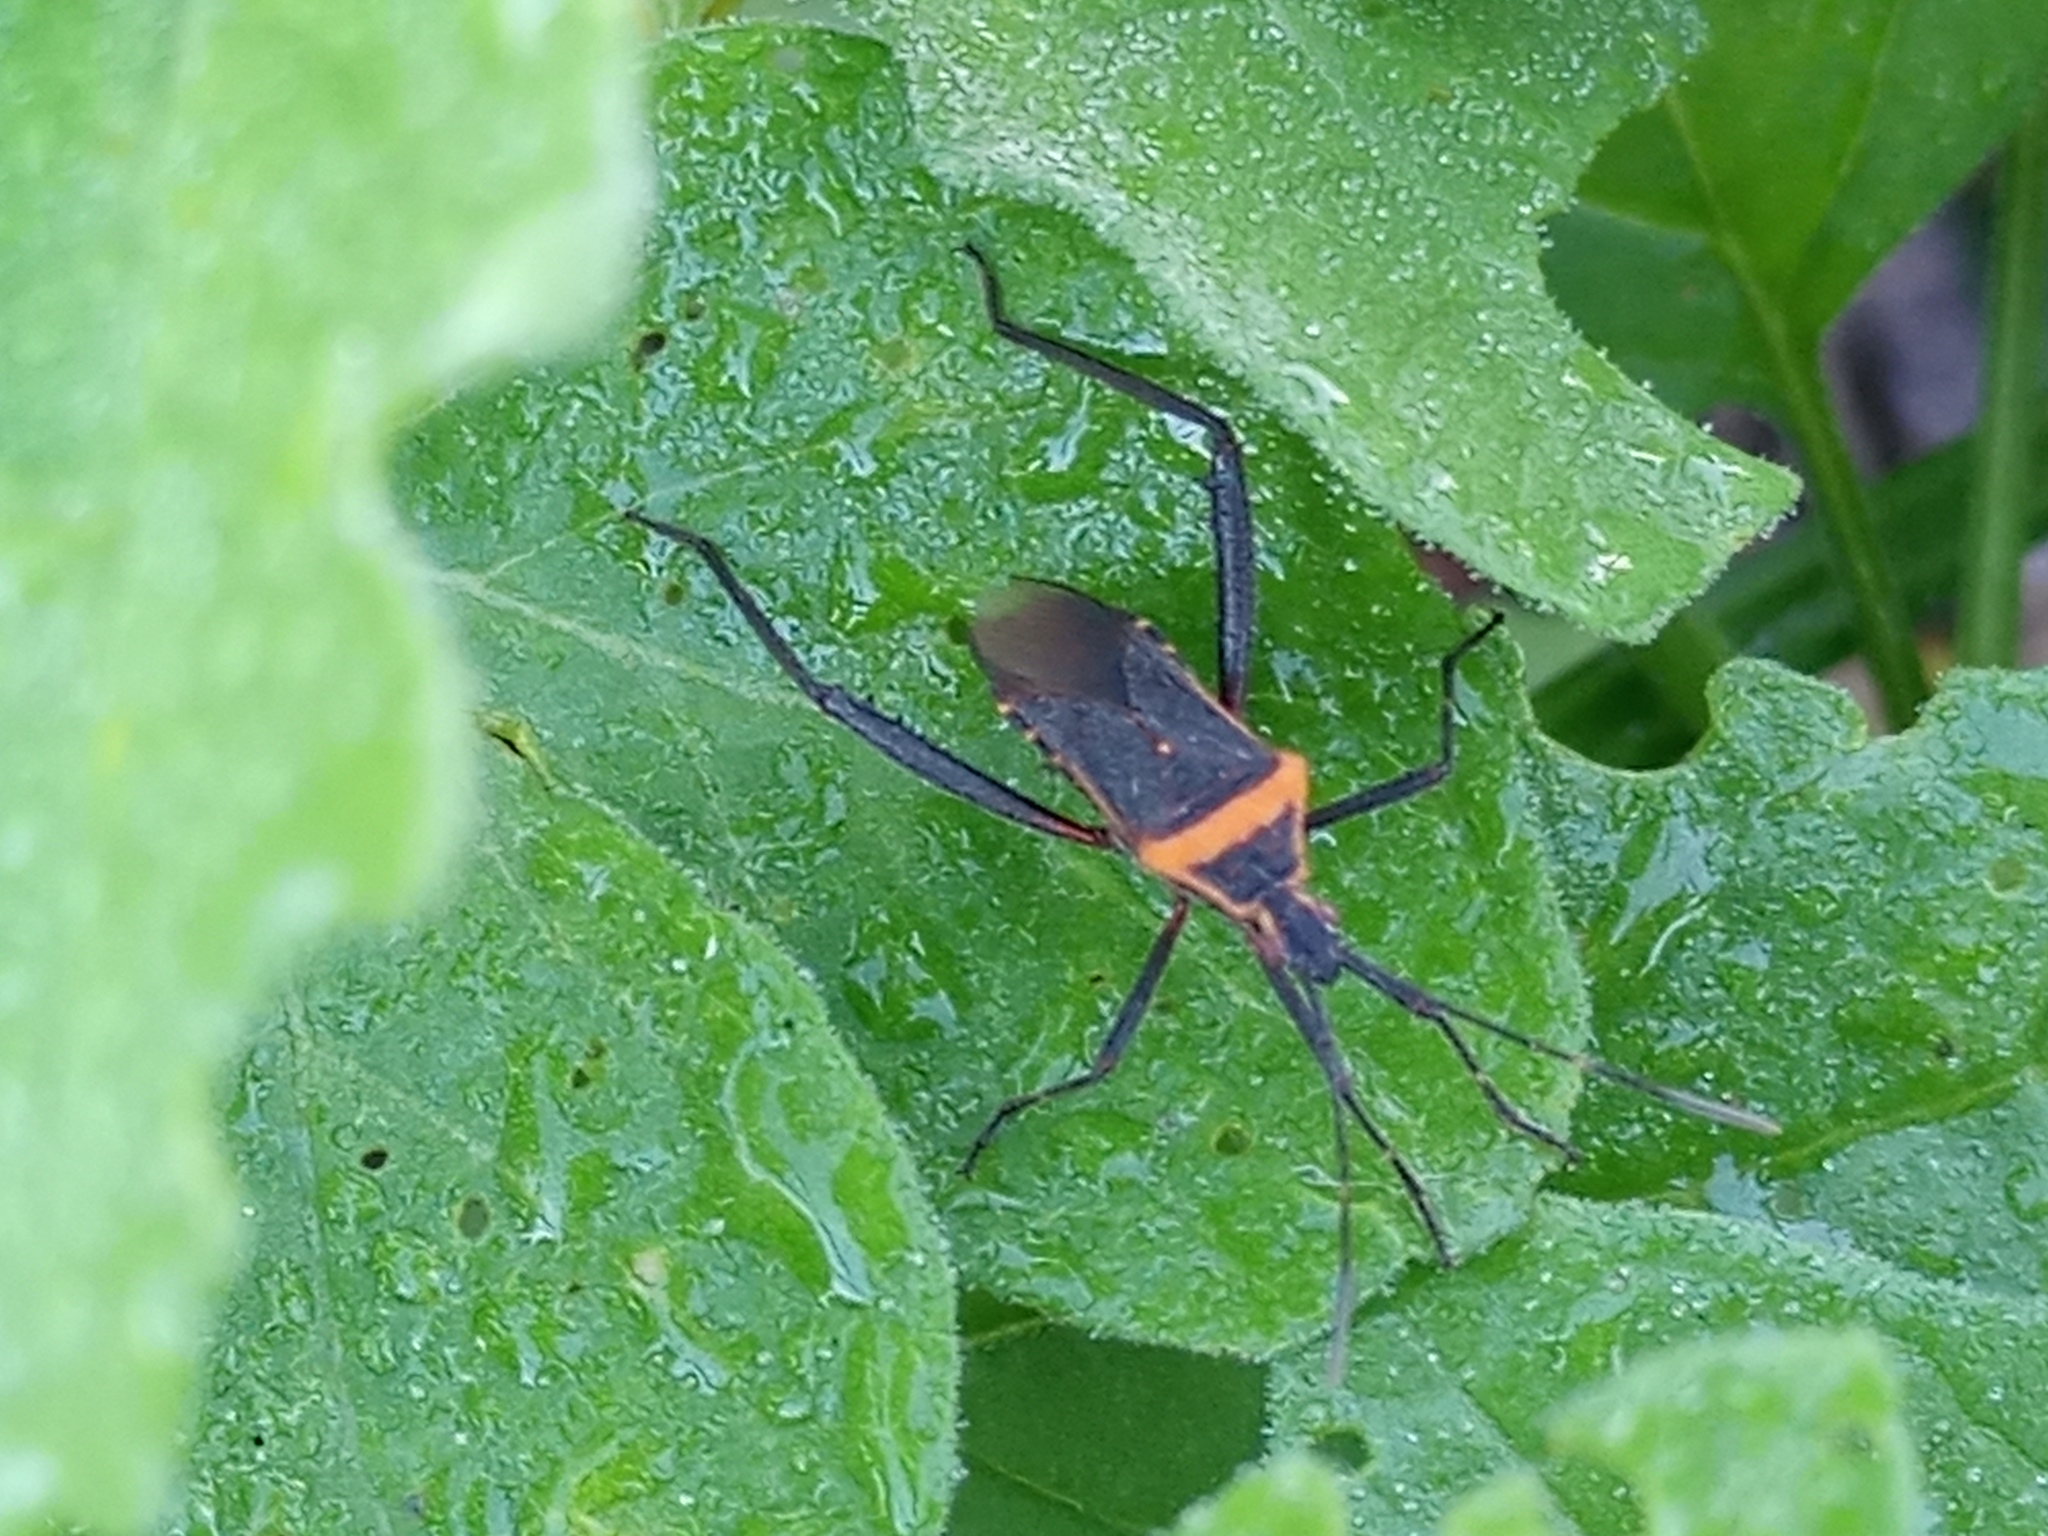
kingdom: Animalia
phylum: Arthropoda
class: Insecta
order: Hemiptera
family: Coreidae
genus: Phthiacnemia
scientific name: Phthiacnemia picta
